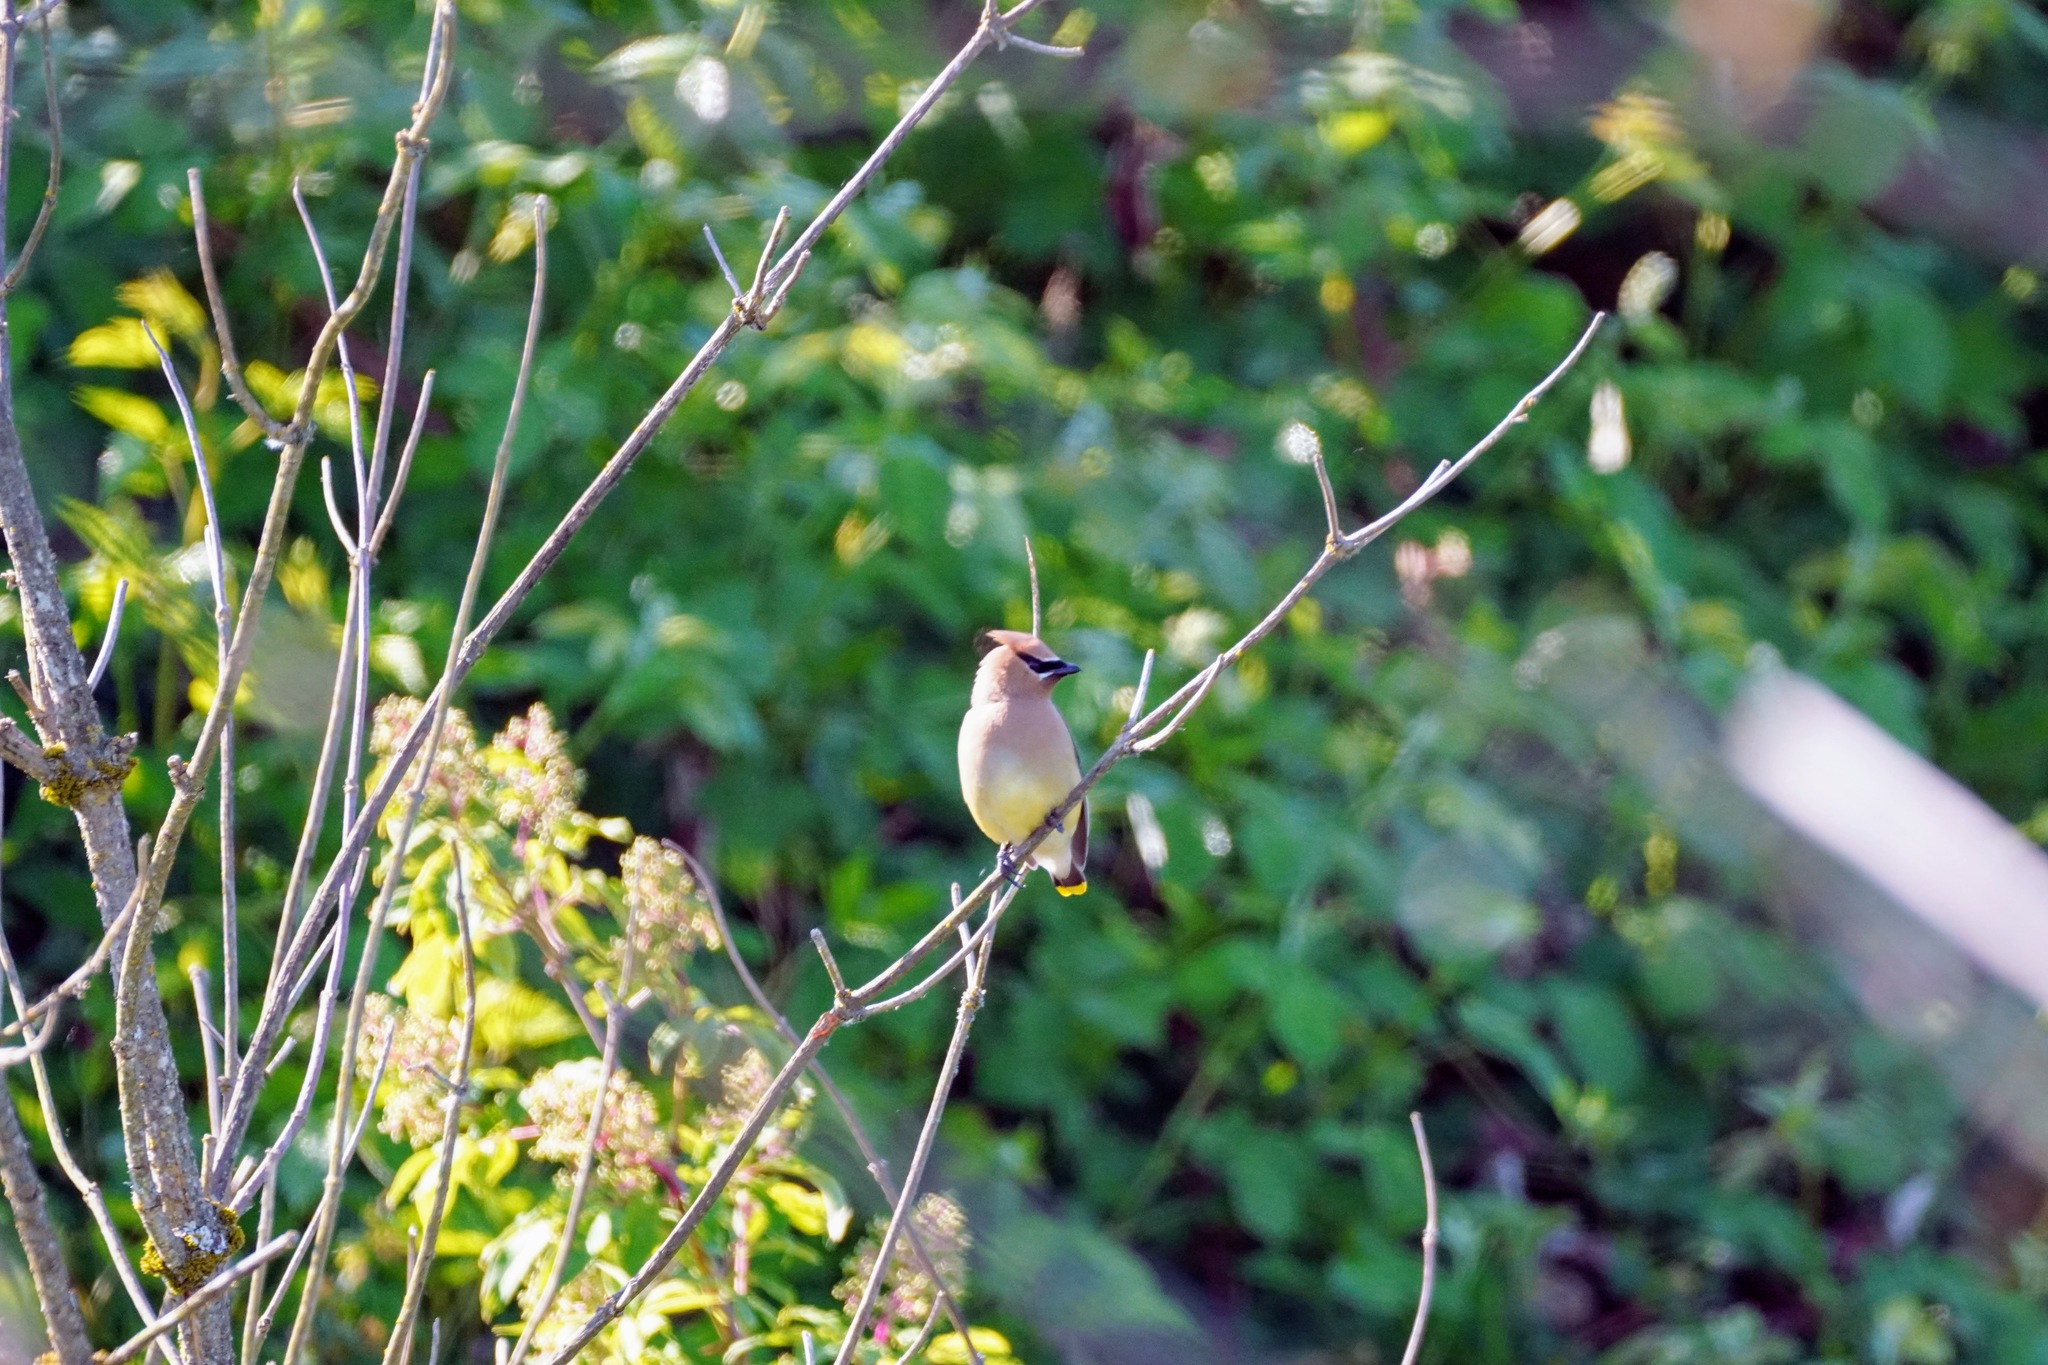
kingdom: Animalia
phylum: Chordata
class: Aves
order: Passeriformes
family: Bombycillidae
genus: Bombycilla
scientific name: Bombycilla cedrorum
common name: Cedar waxwing
